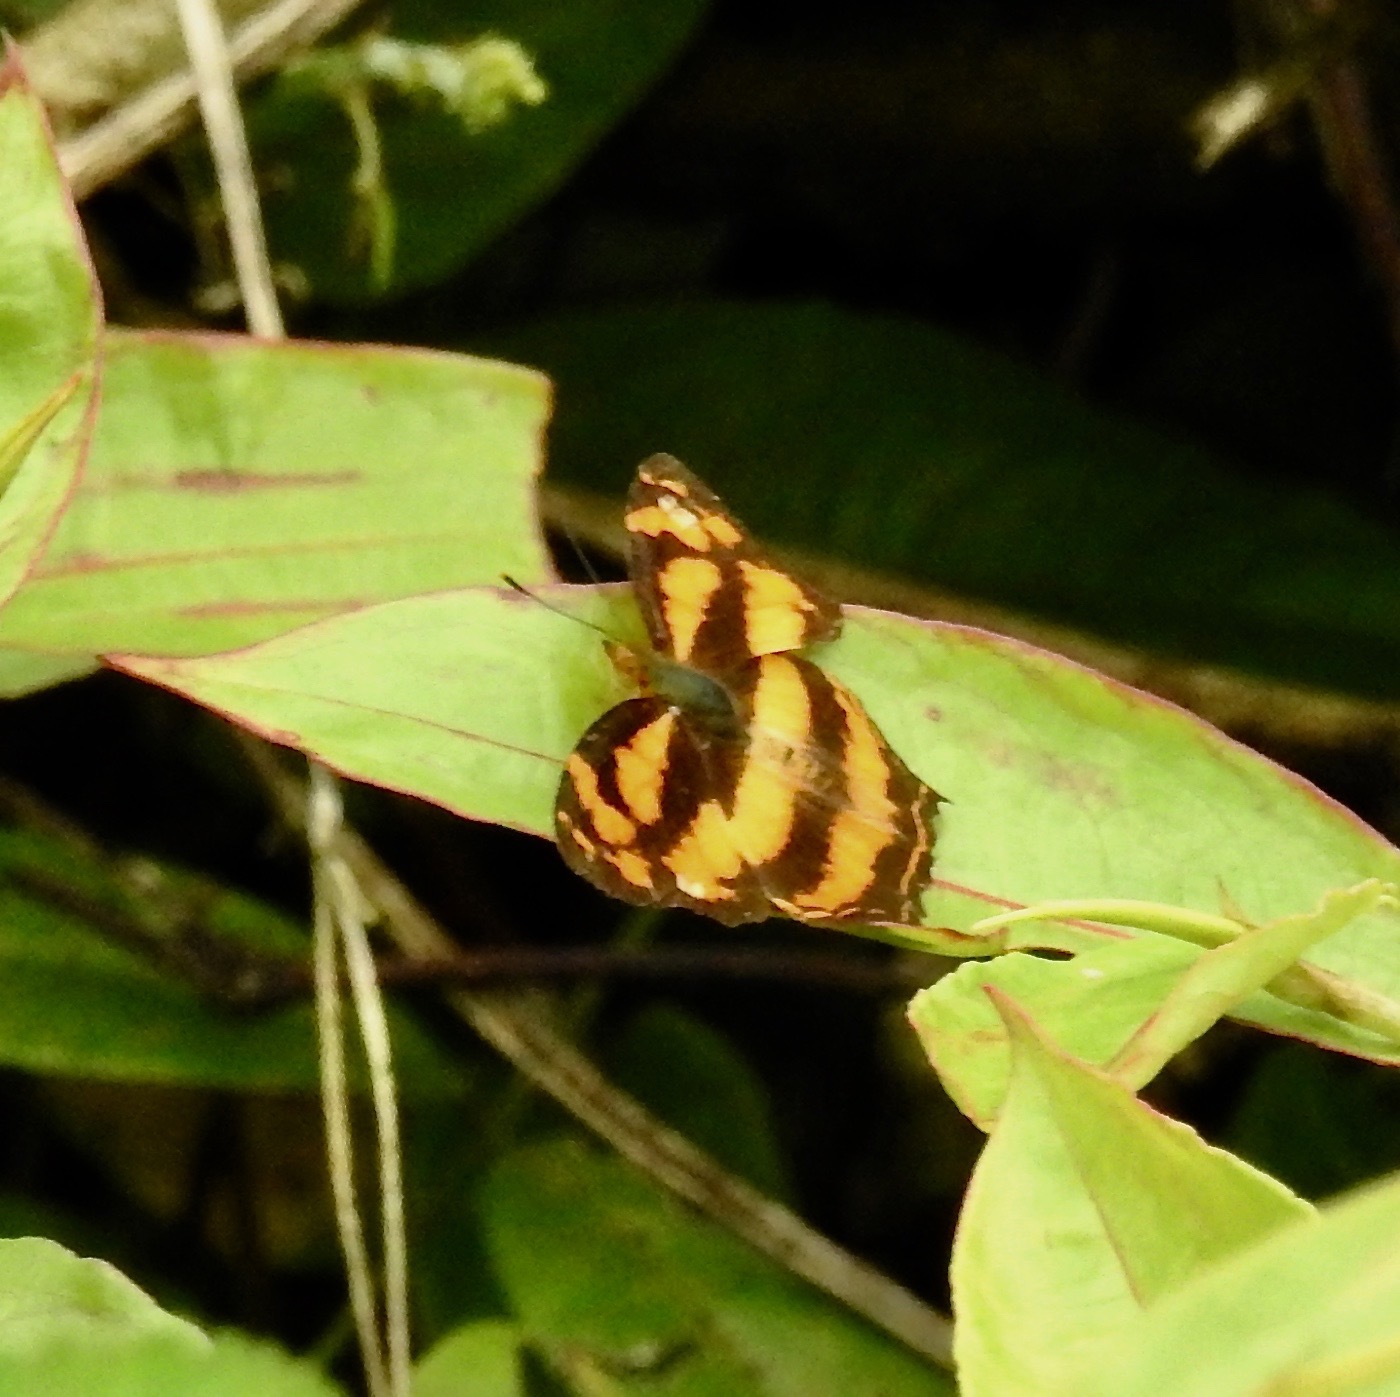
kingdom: Animalia
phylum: Arthropoda
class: Insecta
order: Lepidoptera
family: Nymphalidae
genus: Symbrenthia
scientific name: Symbrenthia hypselis
